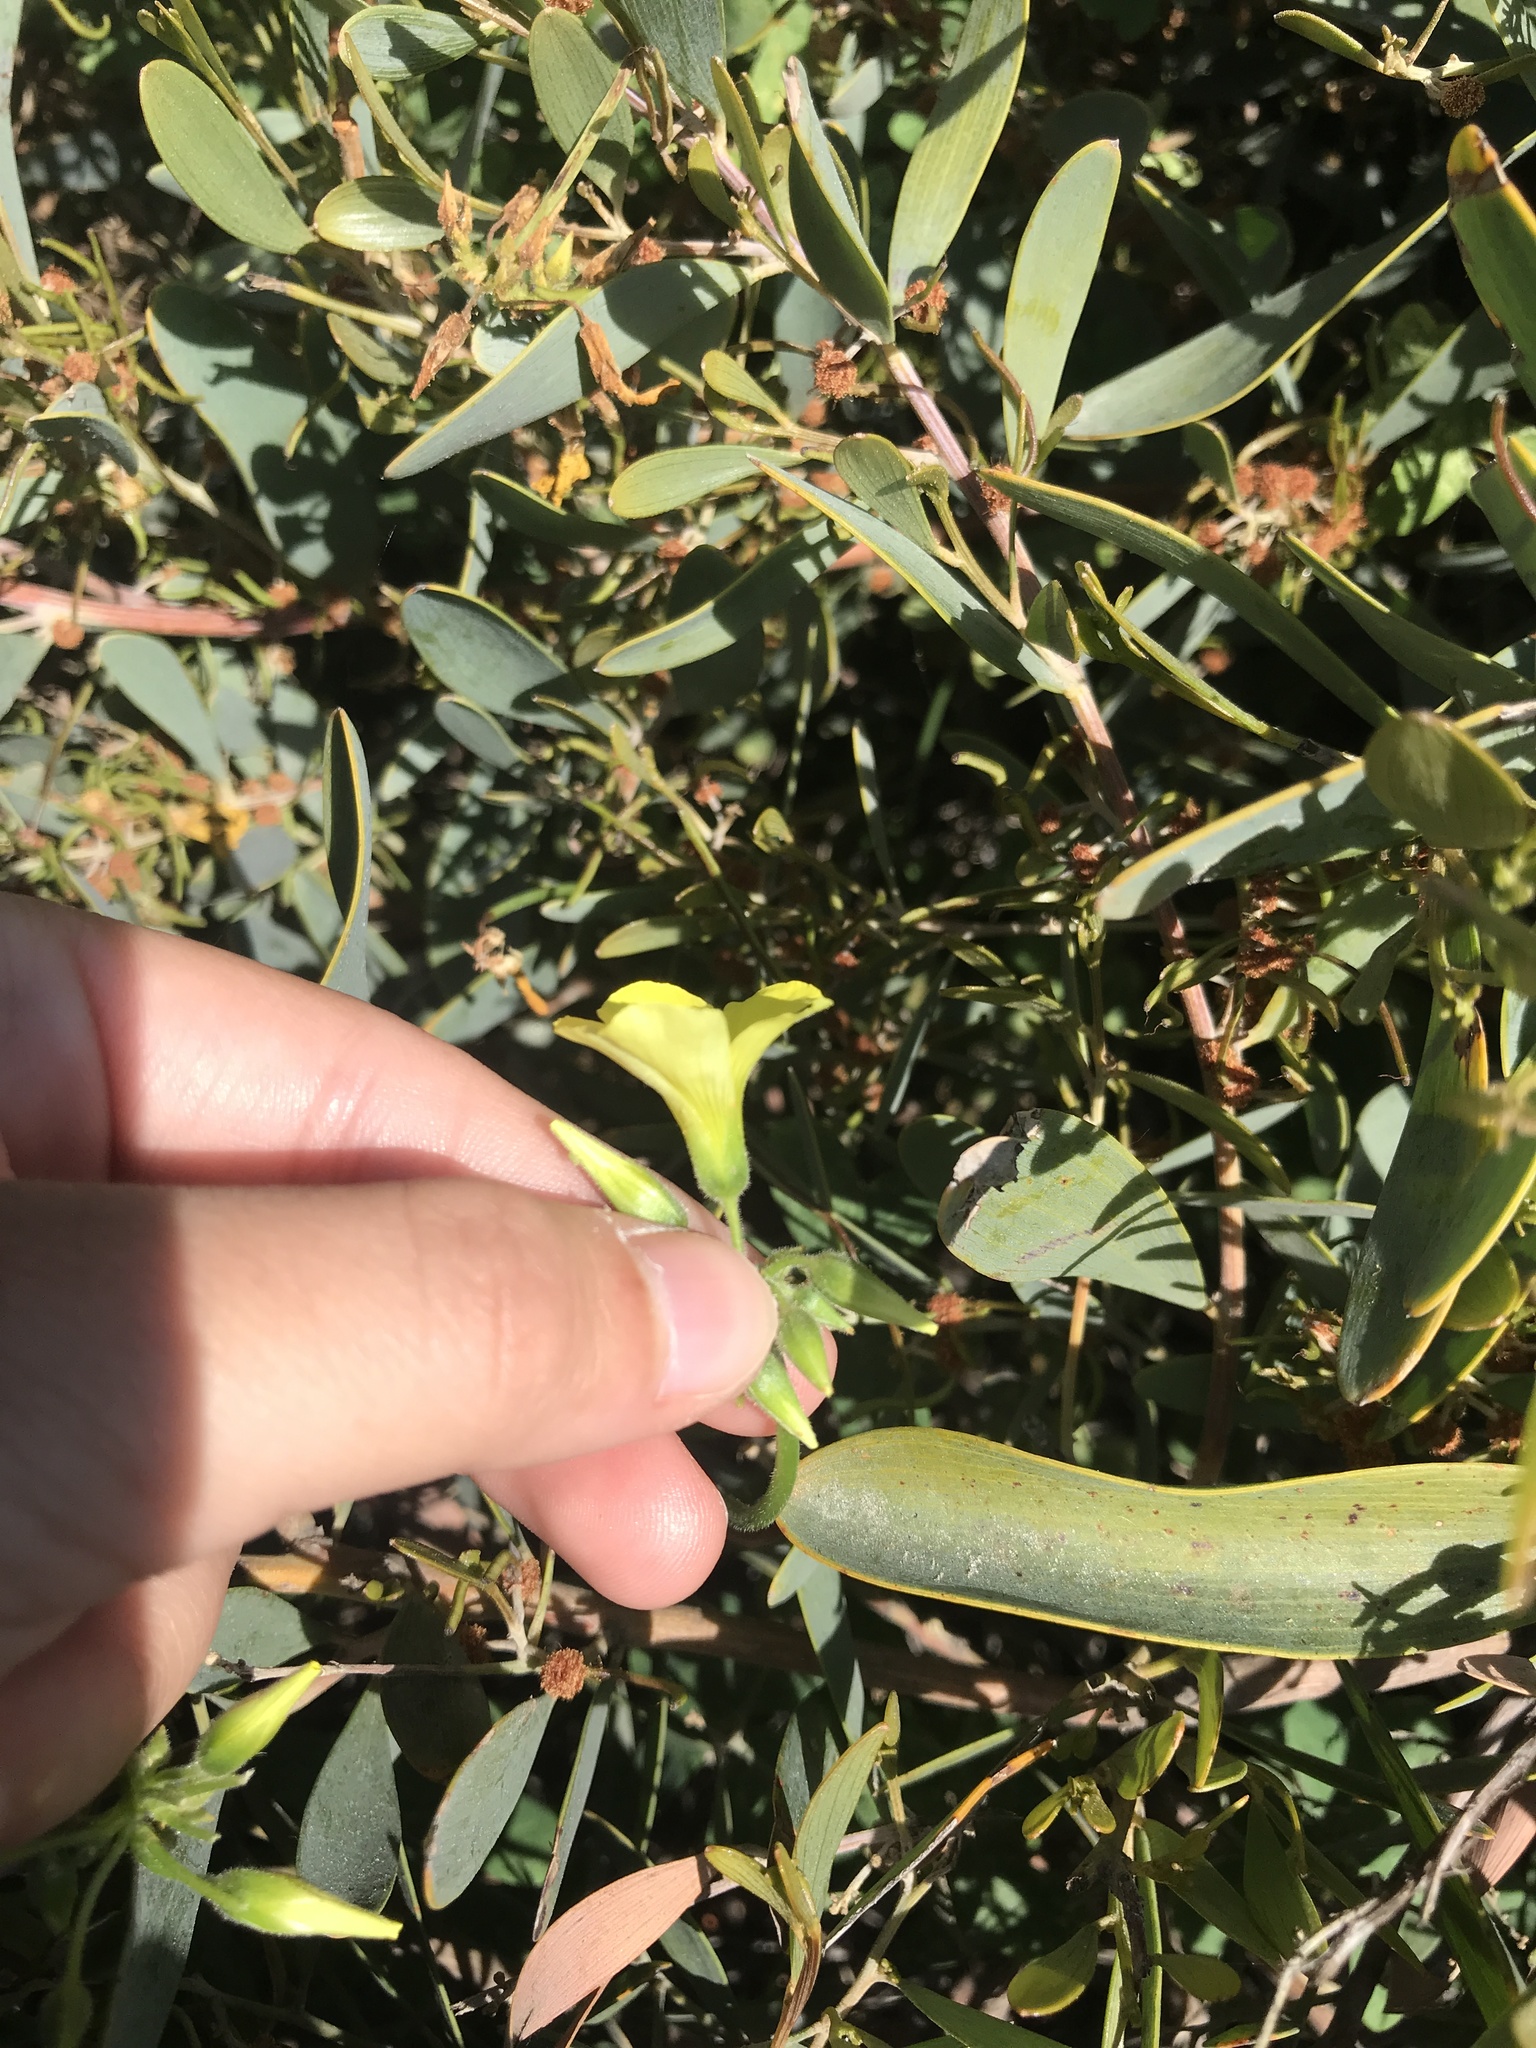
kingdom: Plantae
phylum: Tracheophyta
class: Magnoliopsida
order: Oxalidales
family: Oxalidaceae
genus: Oxalis
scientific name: Oxalis pes-caprae
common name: Bermuda-buttercup
